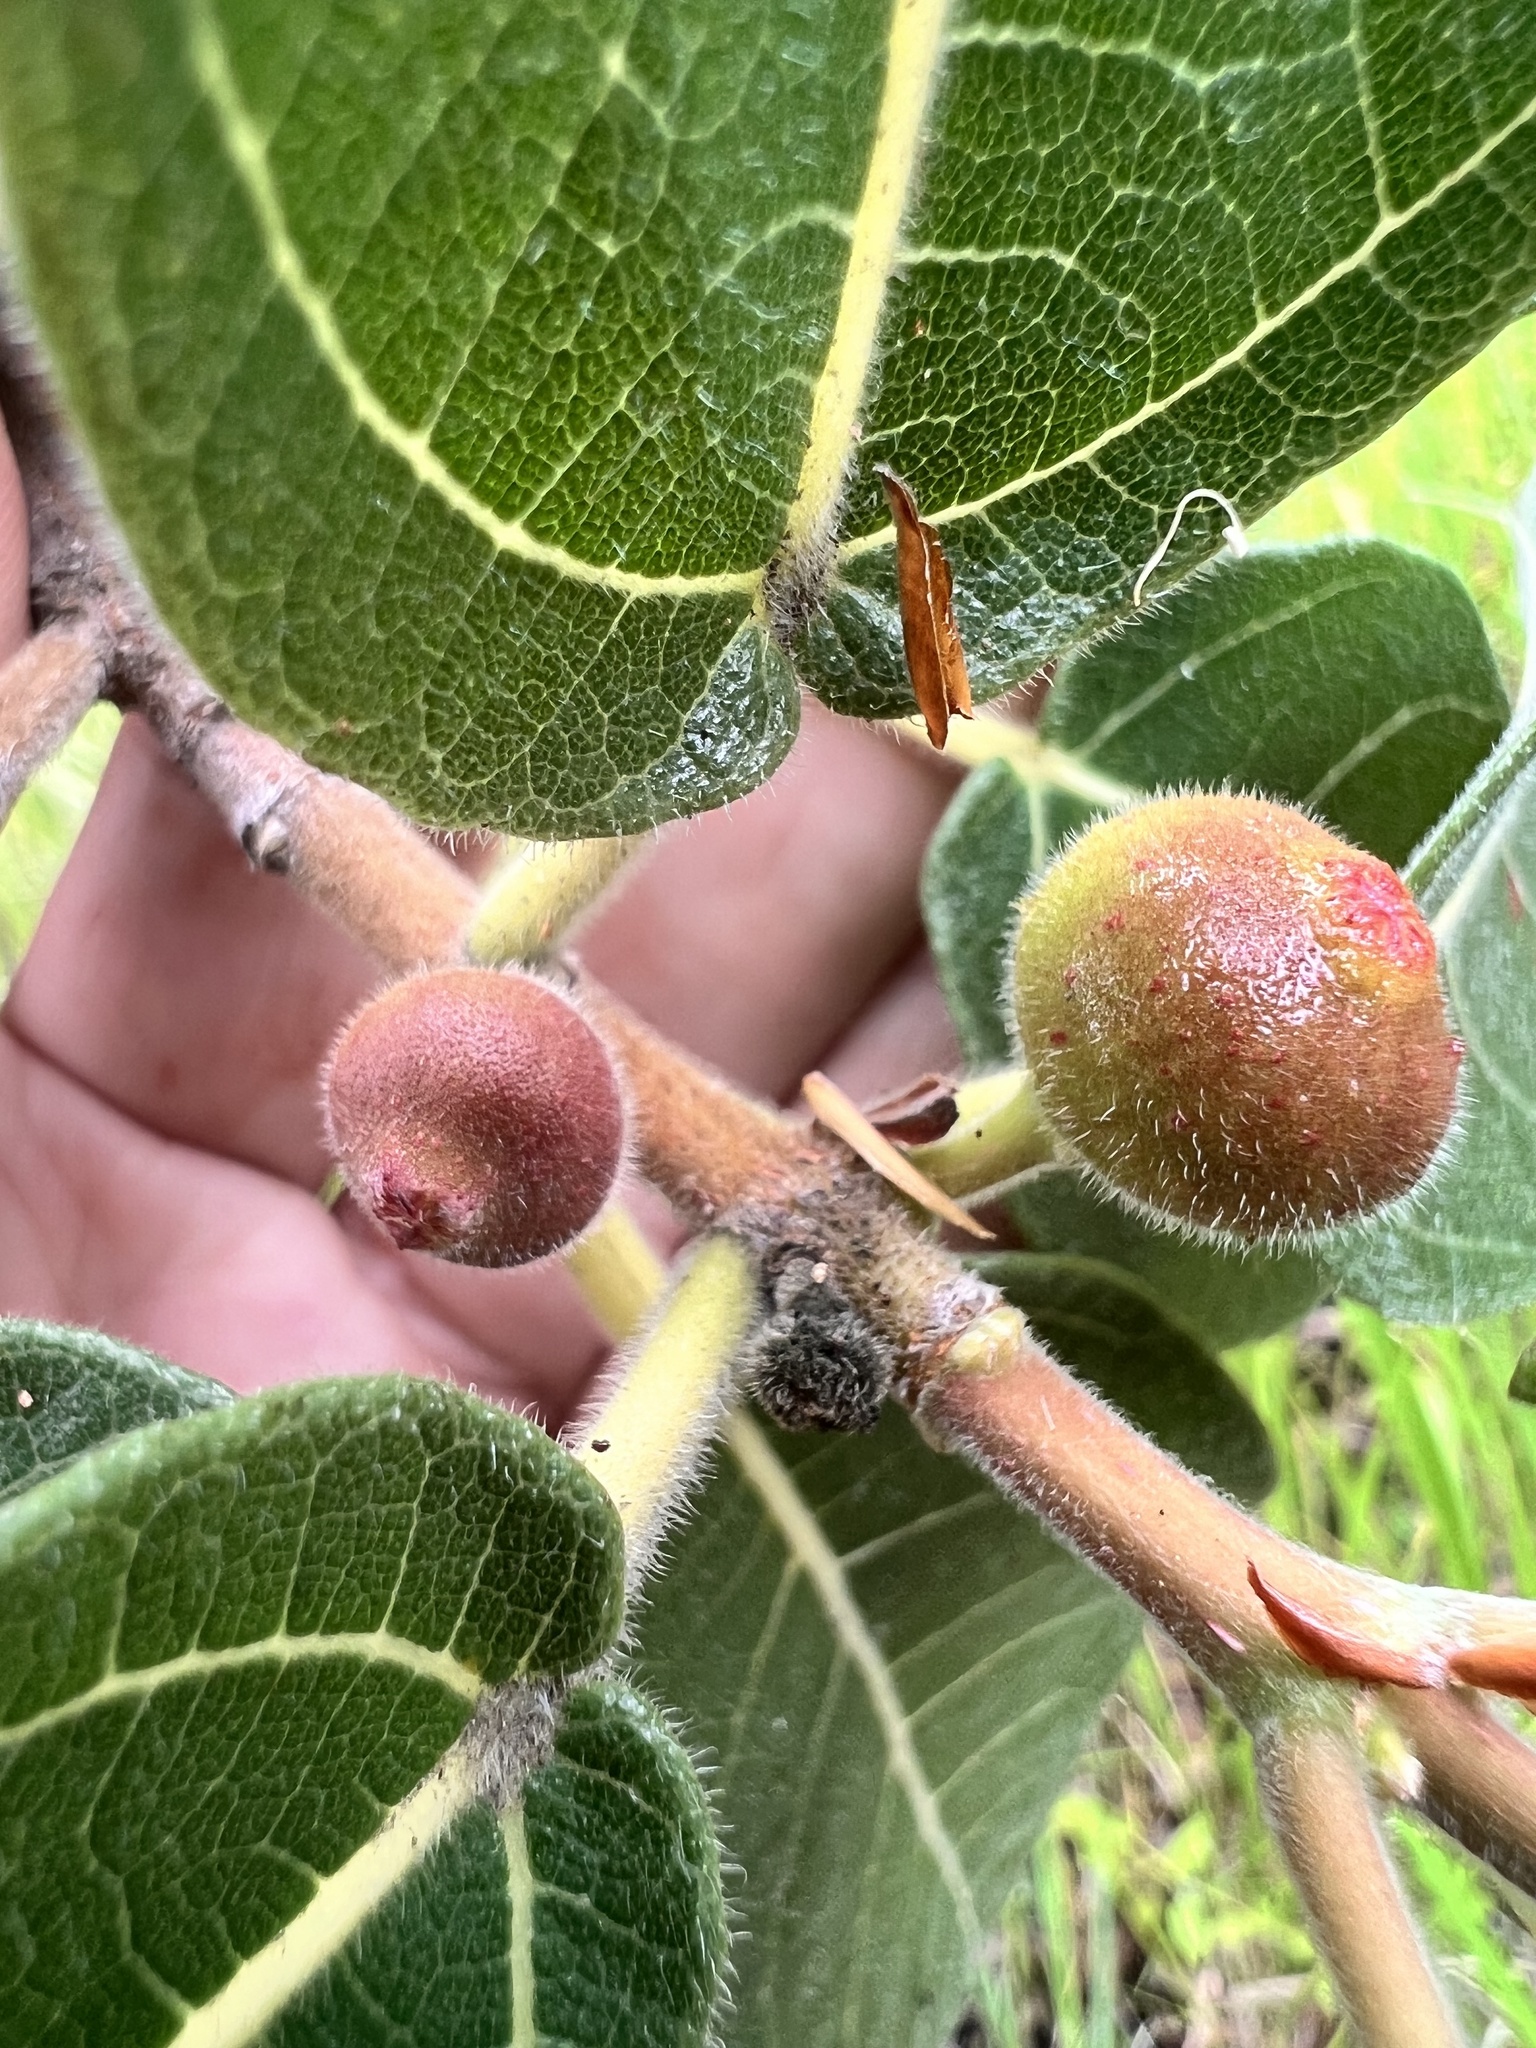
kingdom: Plantae
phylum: Tracheophyta
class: Magnoliopsida
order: Rosales
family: Moraceae
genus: Ficus
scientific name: Ficus opposita
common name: Figwood
